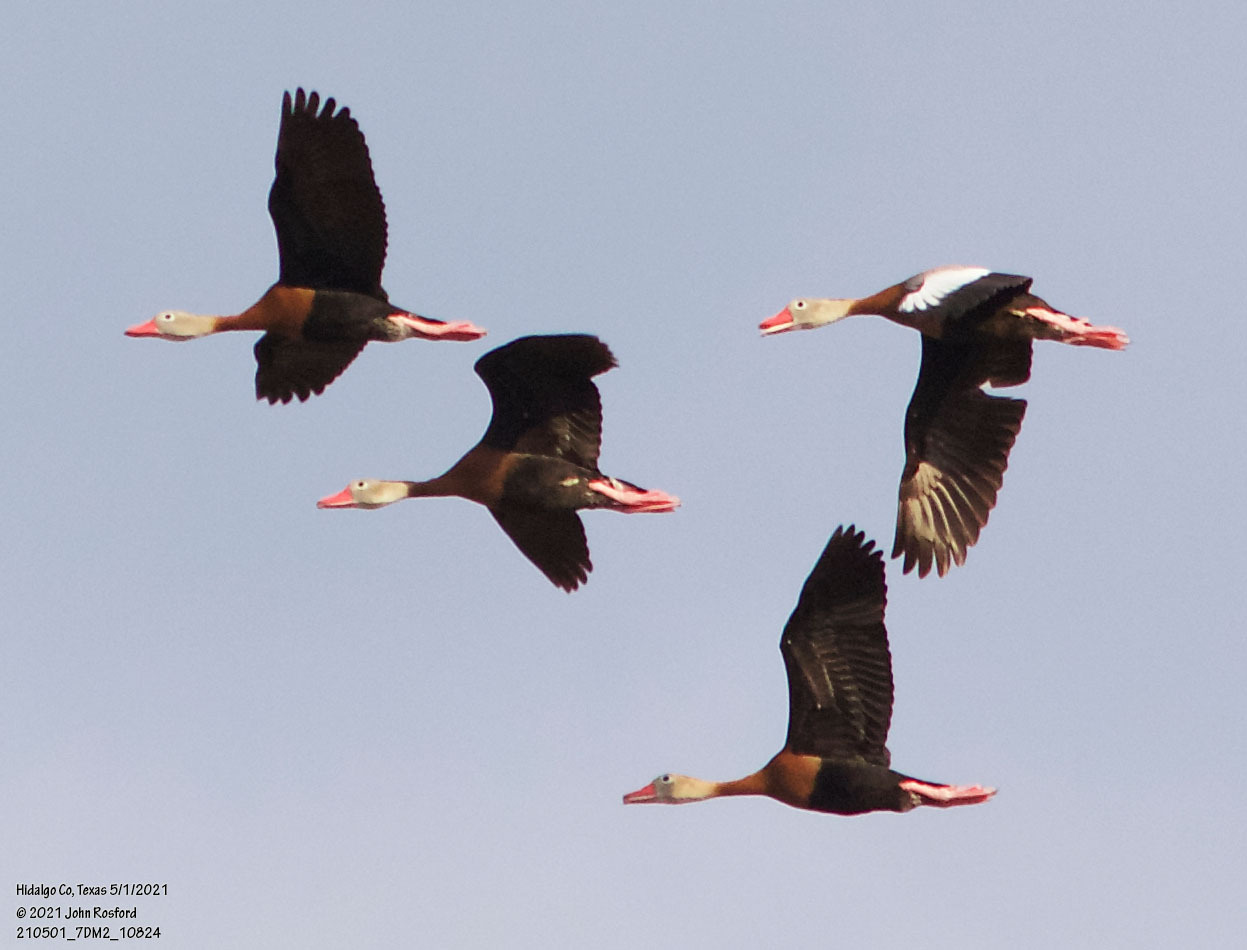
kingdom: Animalia
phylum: Chordata
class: Aves
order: Anseriformes
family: Anatidae
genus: Dendrocygna
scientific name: Dendrocygna autumnalis
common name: Black-bellied whistling duck
